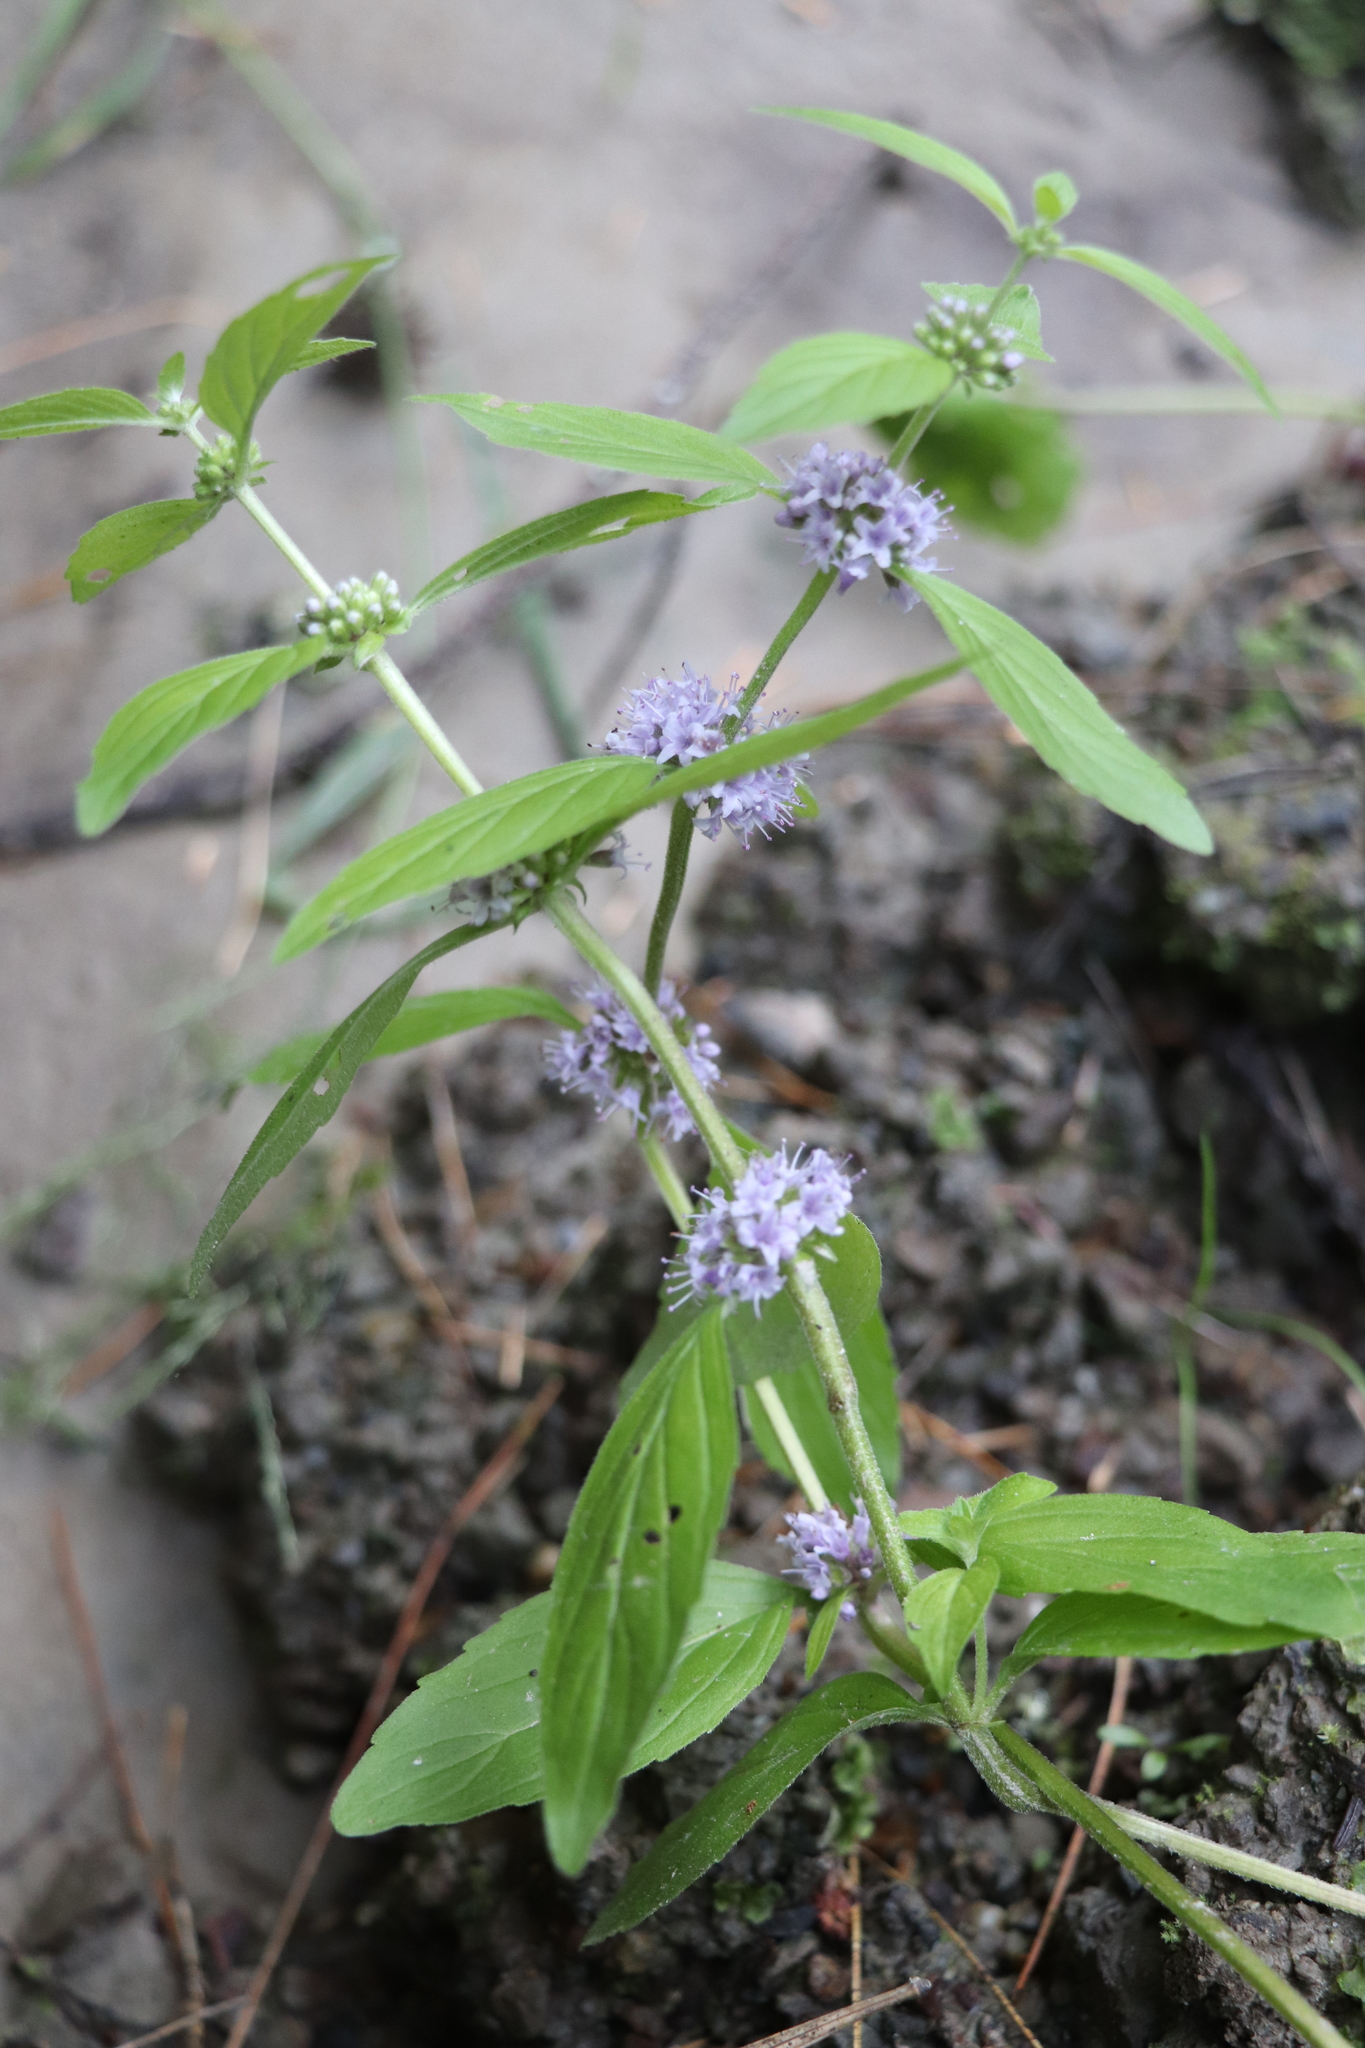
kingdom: Plantae
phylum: Tracheophyta
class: Magnoliopsida
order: Lamiales
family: Lamiaceae
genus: Mentha
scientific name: Mentha arvensis
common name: Corn mint
